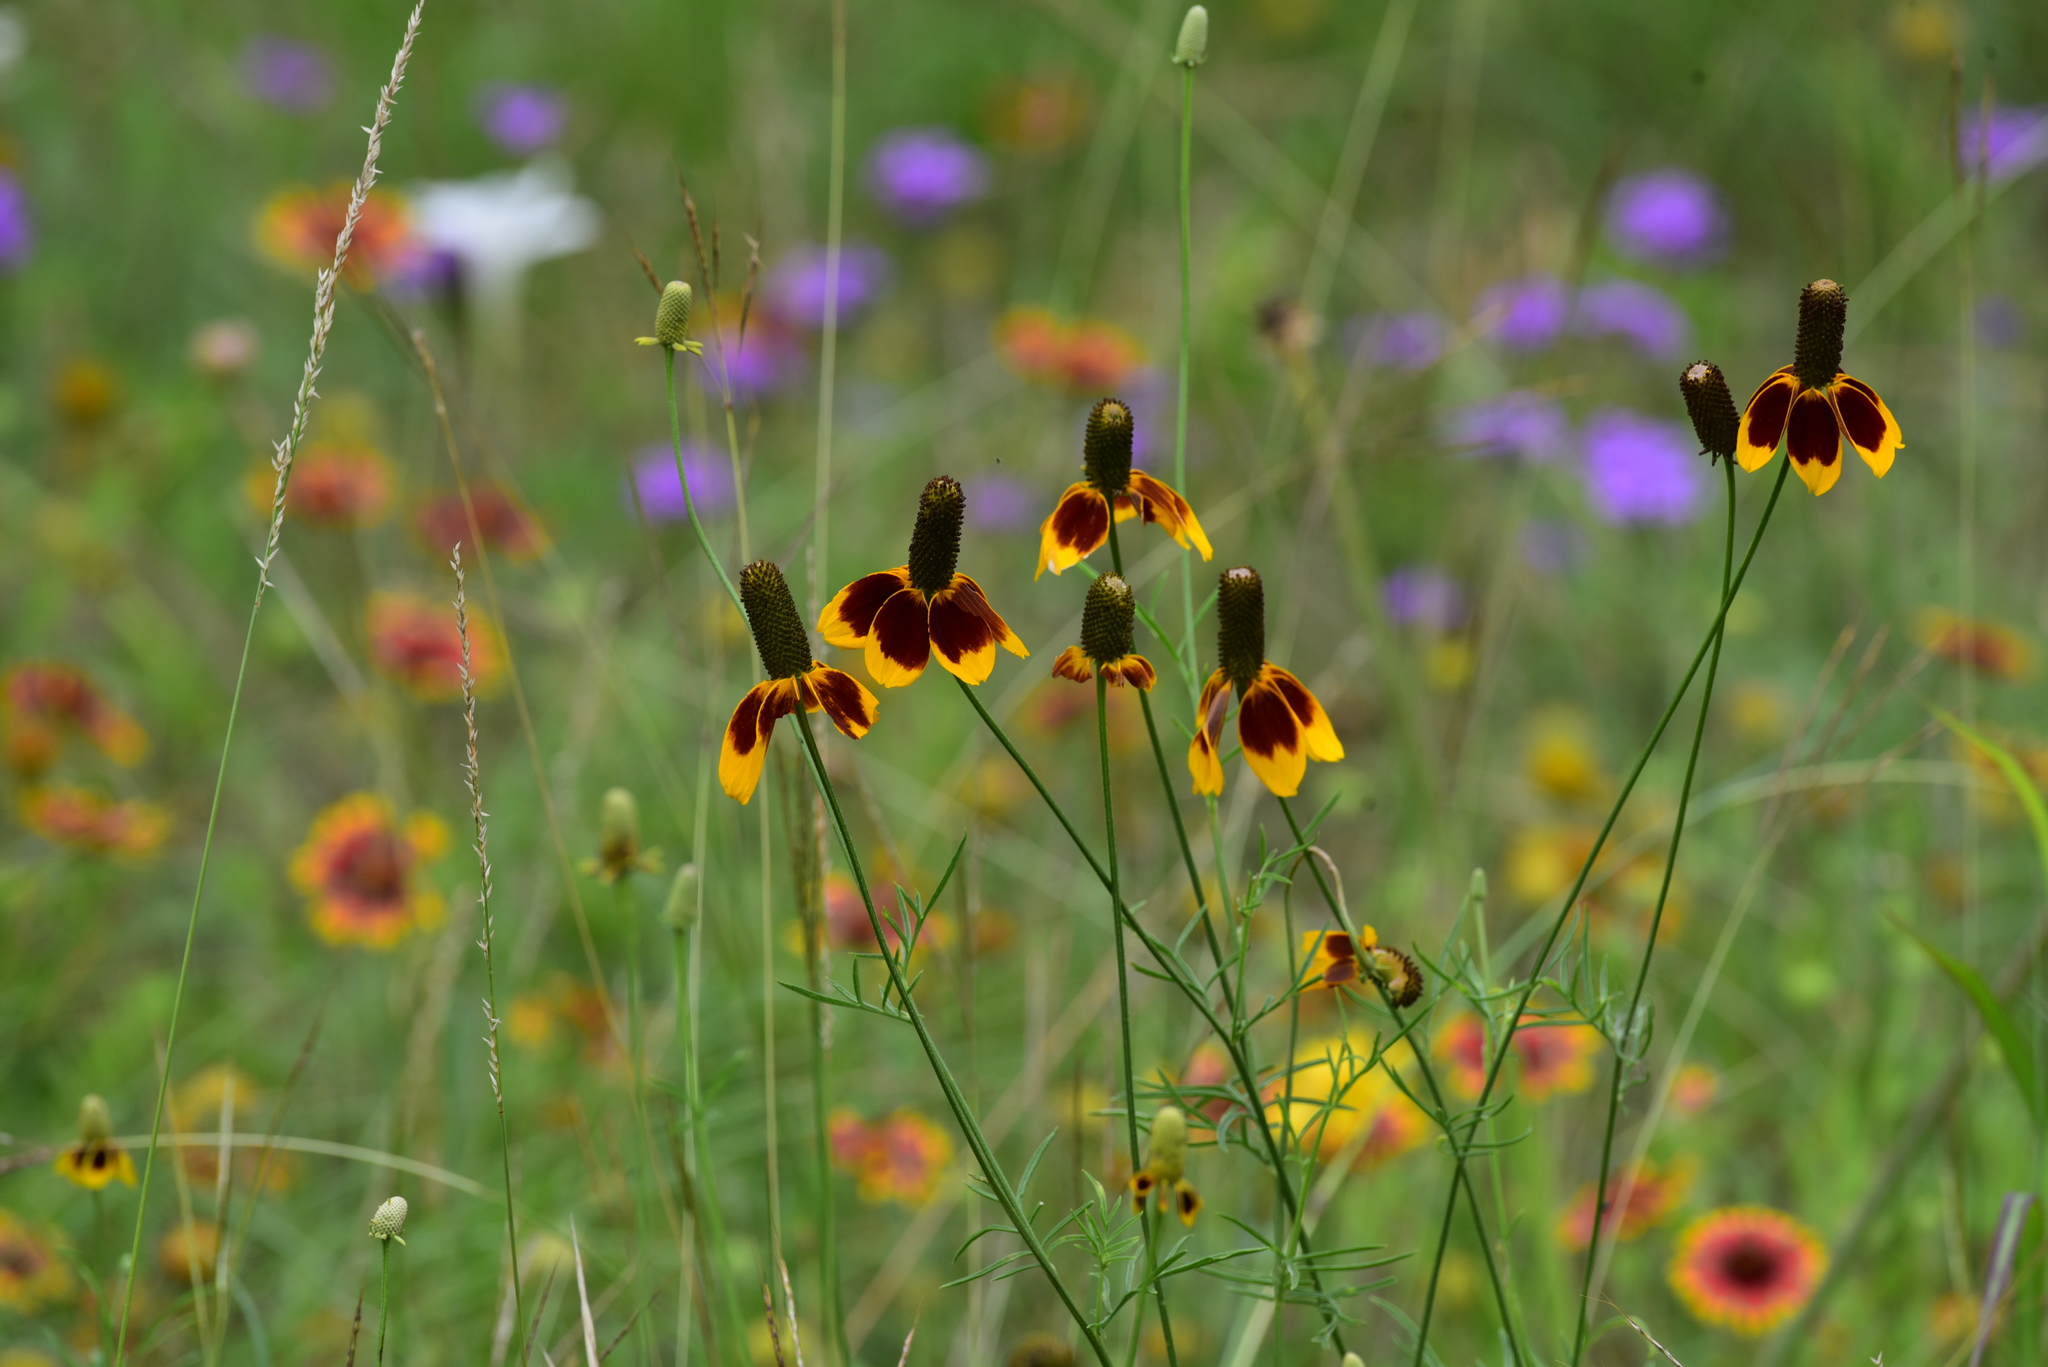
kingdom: Plantae
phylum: Tracheophyta
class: Magnoliopsida
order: Asterales
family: Asteraceae
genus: Ratibida
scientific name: Ratibida columnifera
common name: Prairie coneflower
